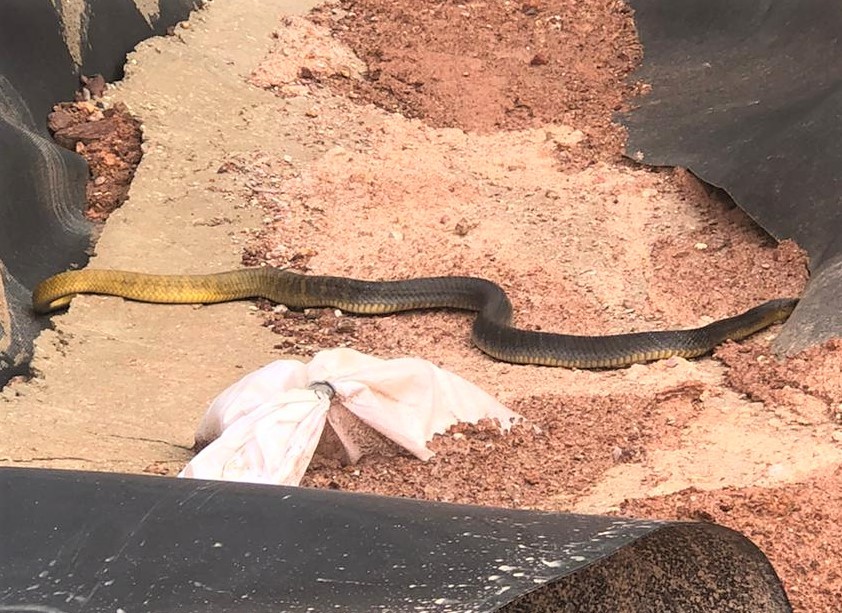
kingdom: Animalia
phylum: Chordata
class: Squamata
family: Colubridae
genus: Drymarchon
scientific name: Drymarchon corais
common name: Indigo snake
